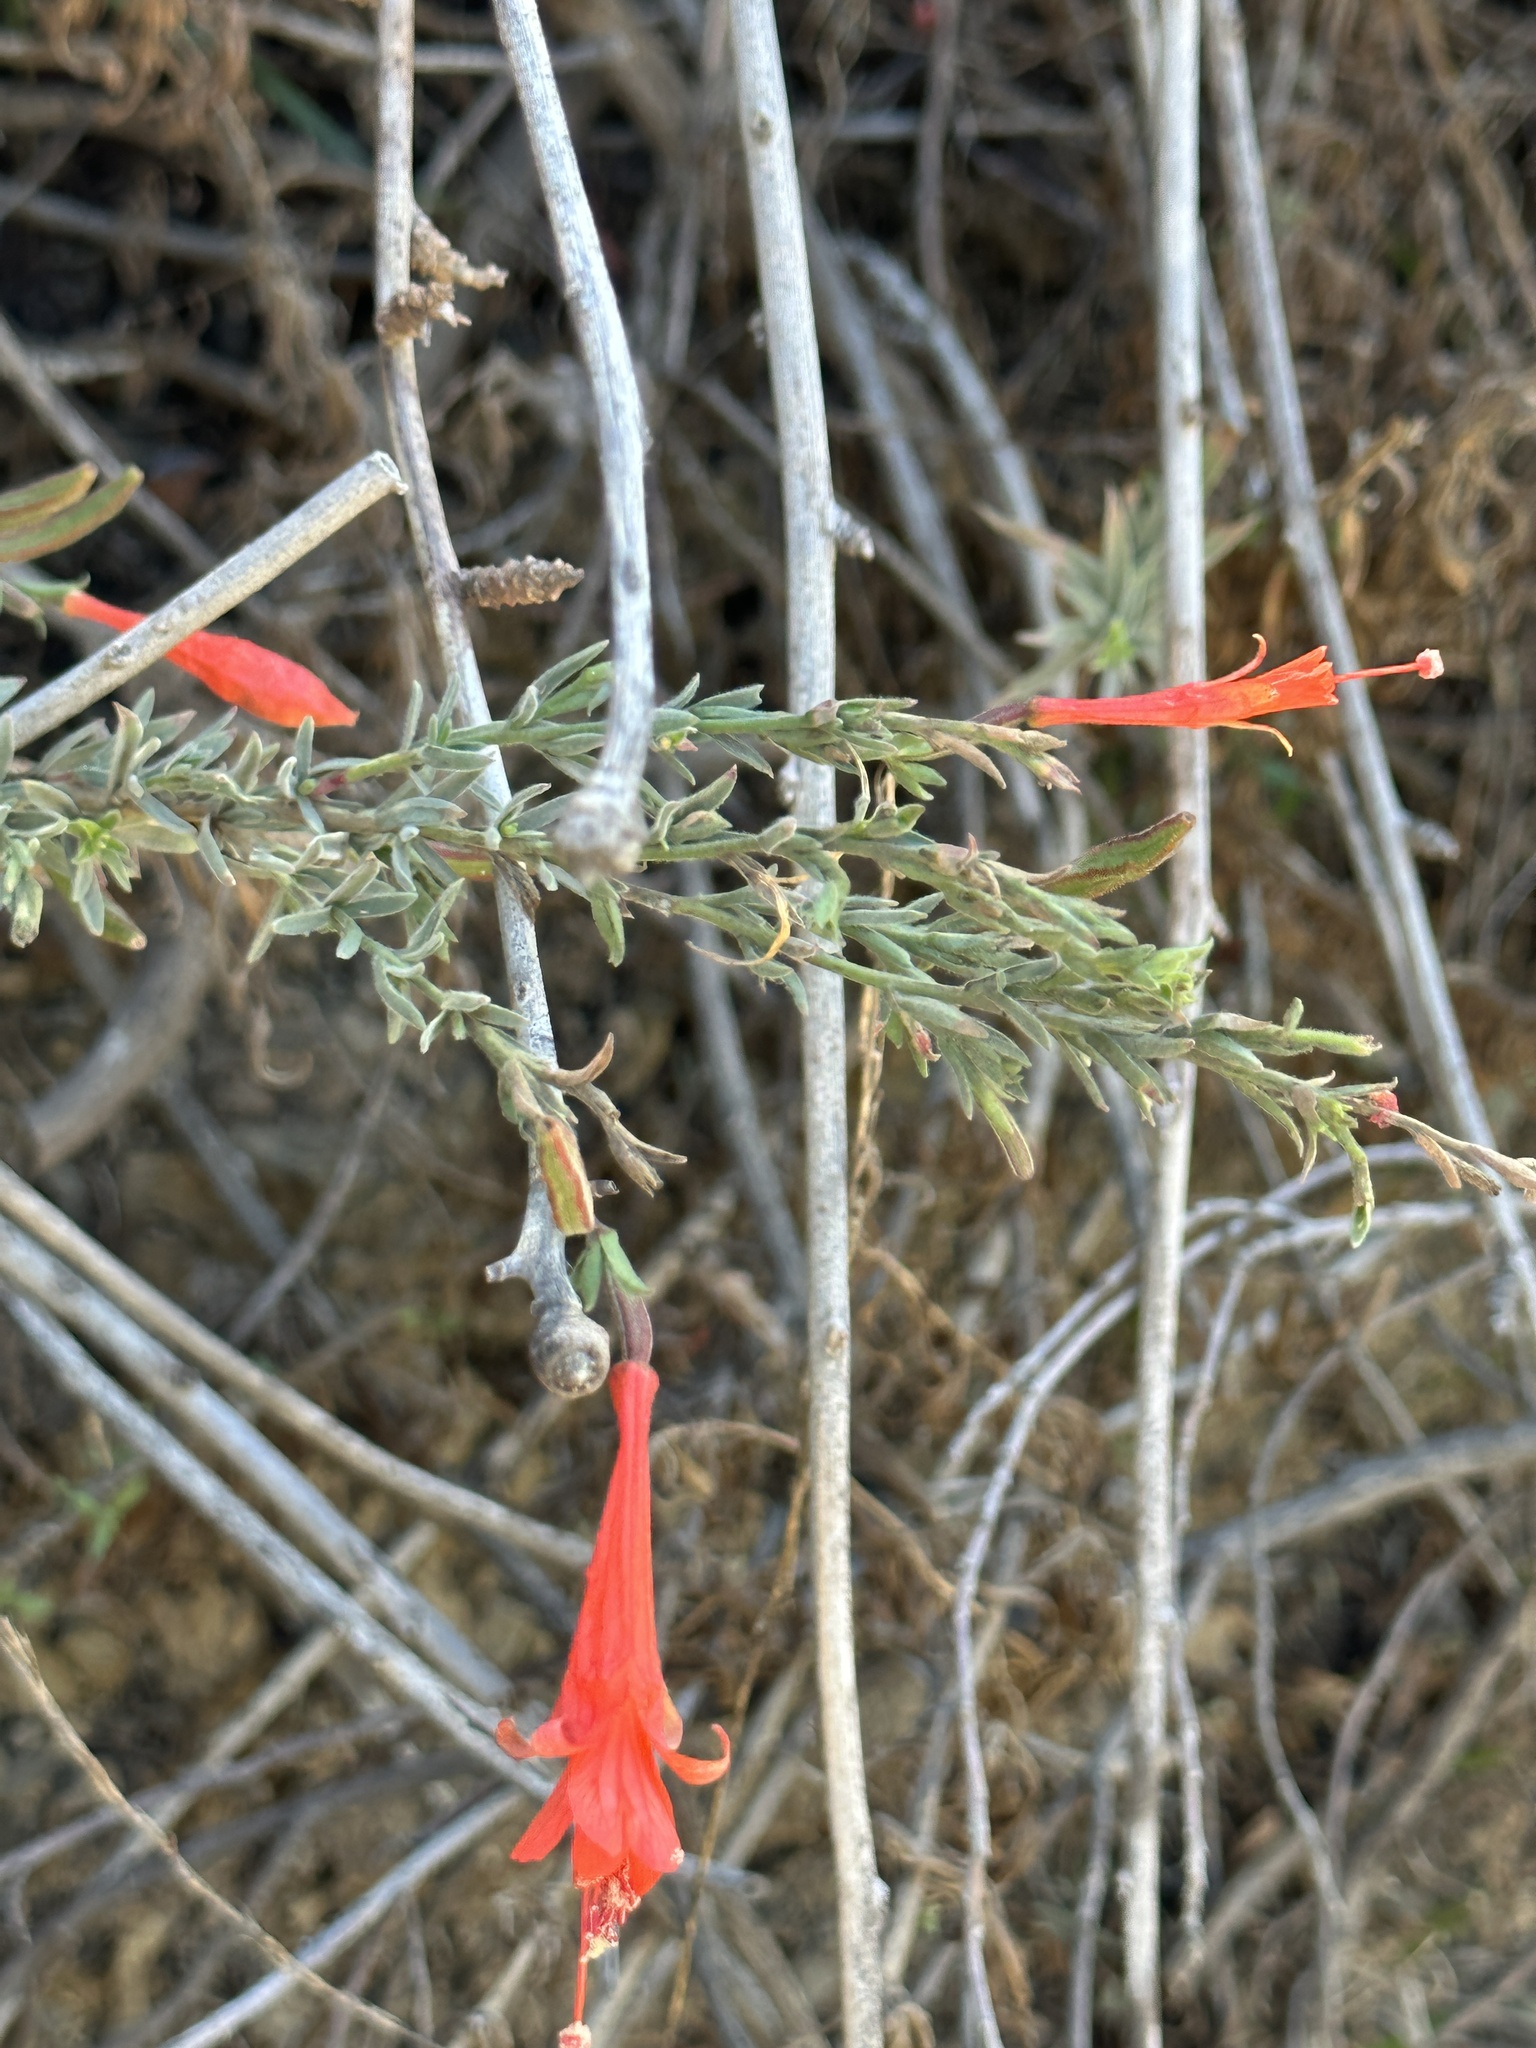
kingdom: Plantae
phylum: Tracheophyta
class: Magnoliopsida
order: Myrtales
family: Onagraceae
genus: Epilobium
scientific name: Epilobium canum
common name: California-fuchsia
